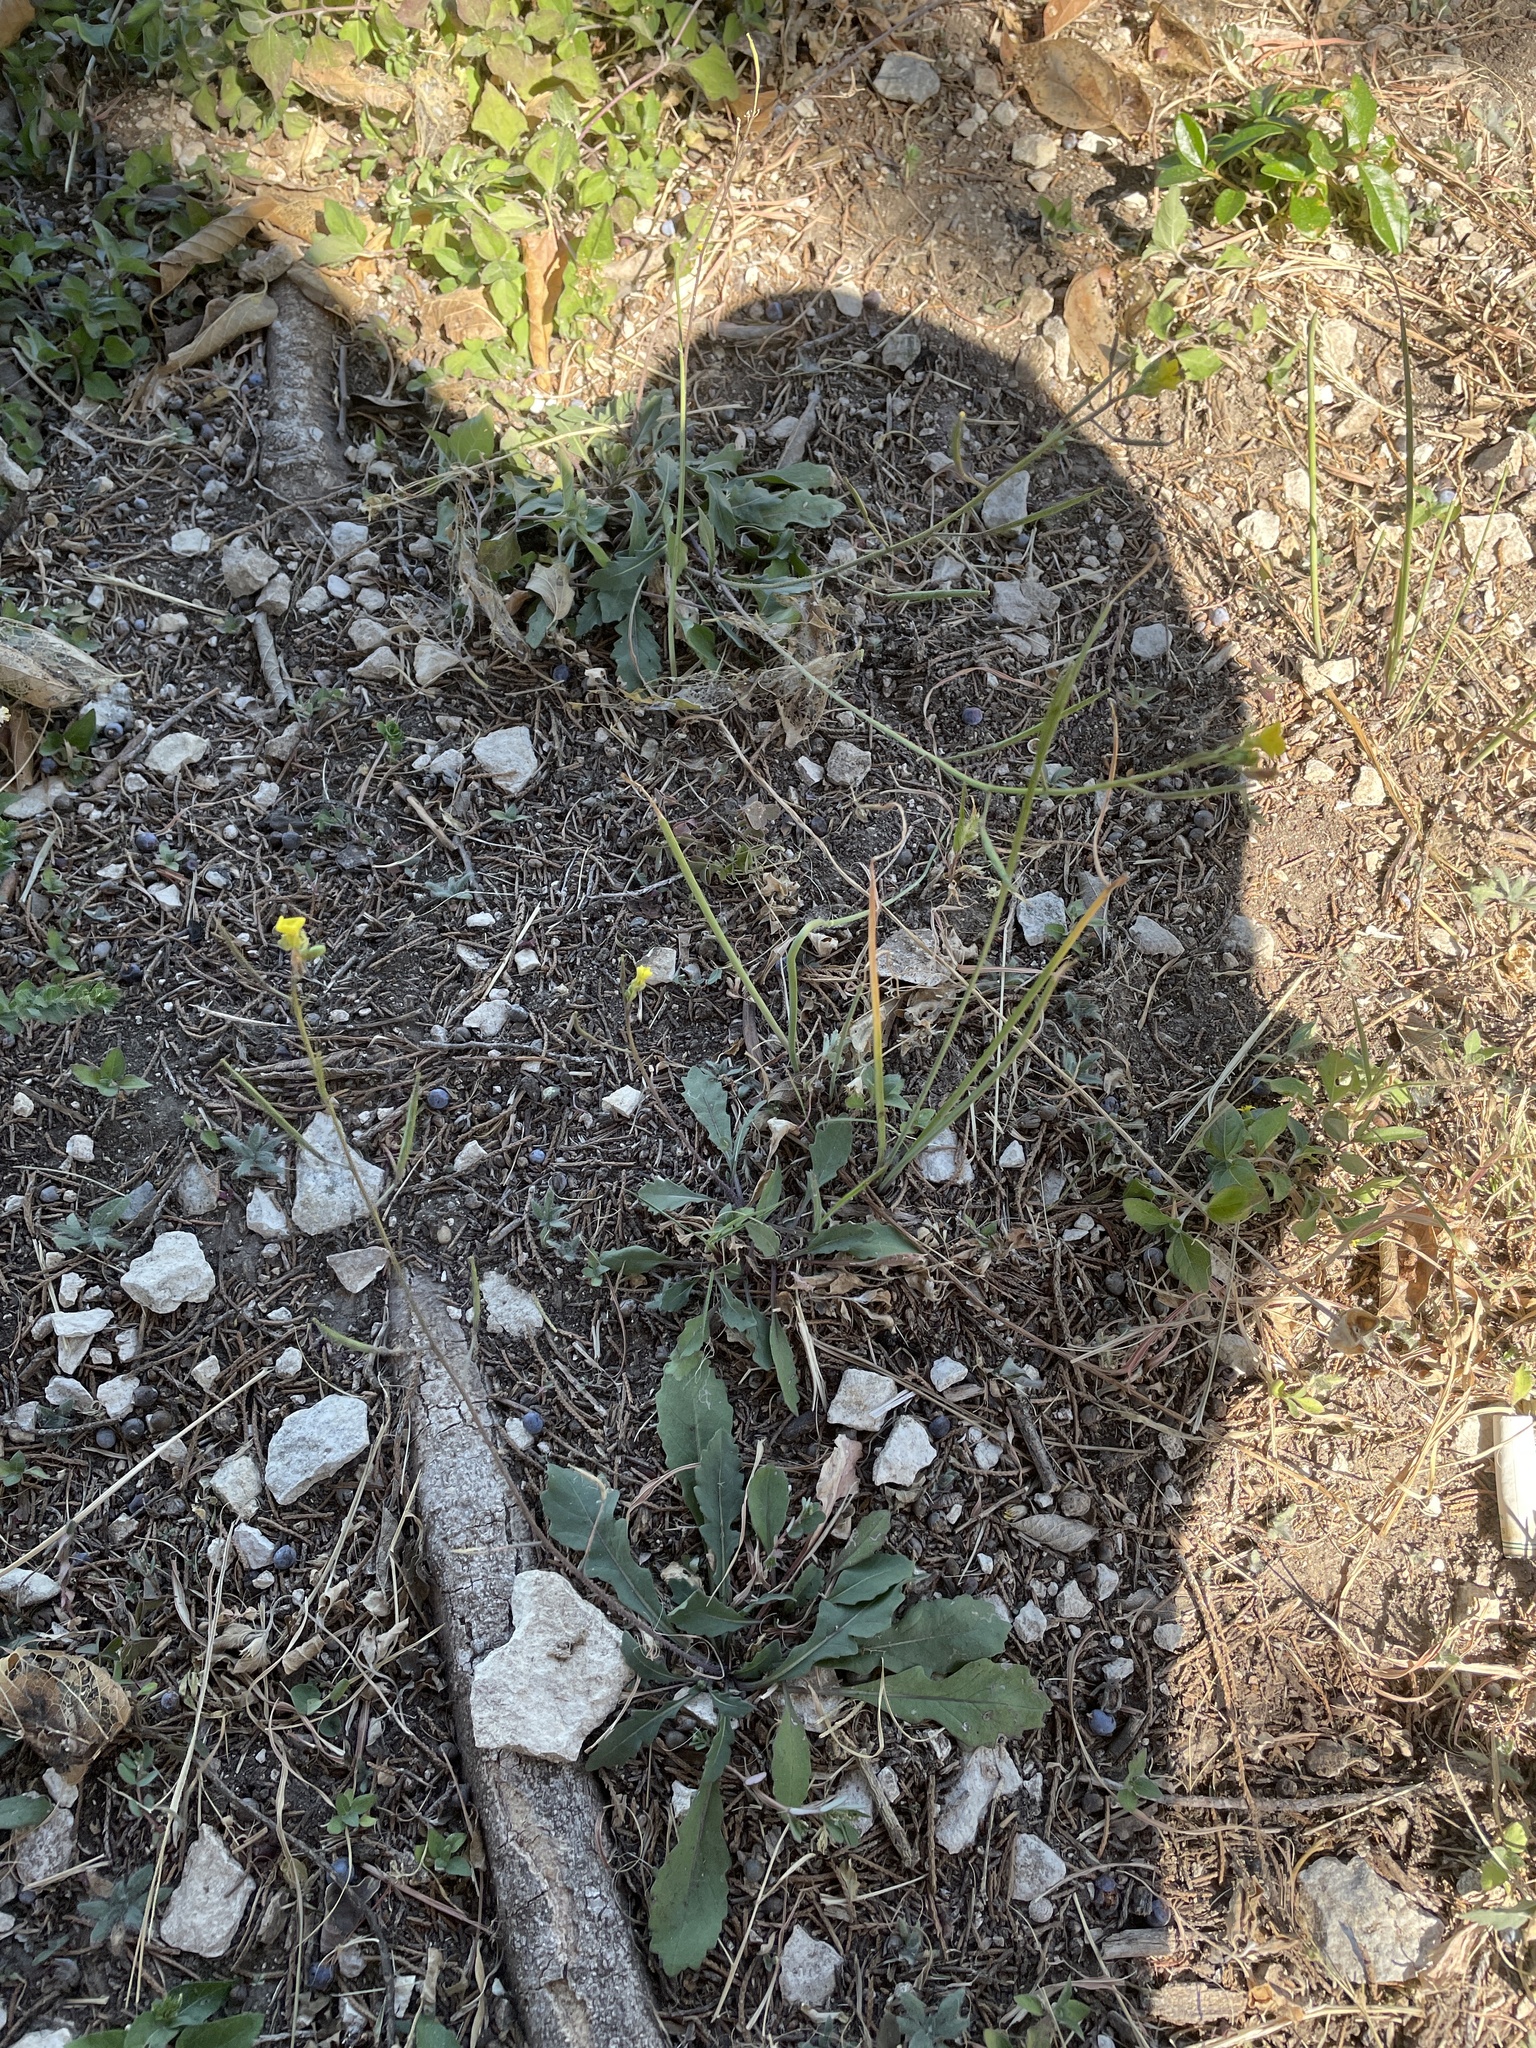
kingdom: Plantae
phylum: Tracheophyta
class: Magnoliopsida
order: Brassicales
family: Brassicaceae
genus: Diplotaxis
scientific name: Diplotaxis muralis
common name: Annual wall-rocket
